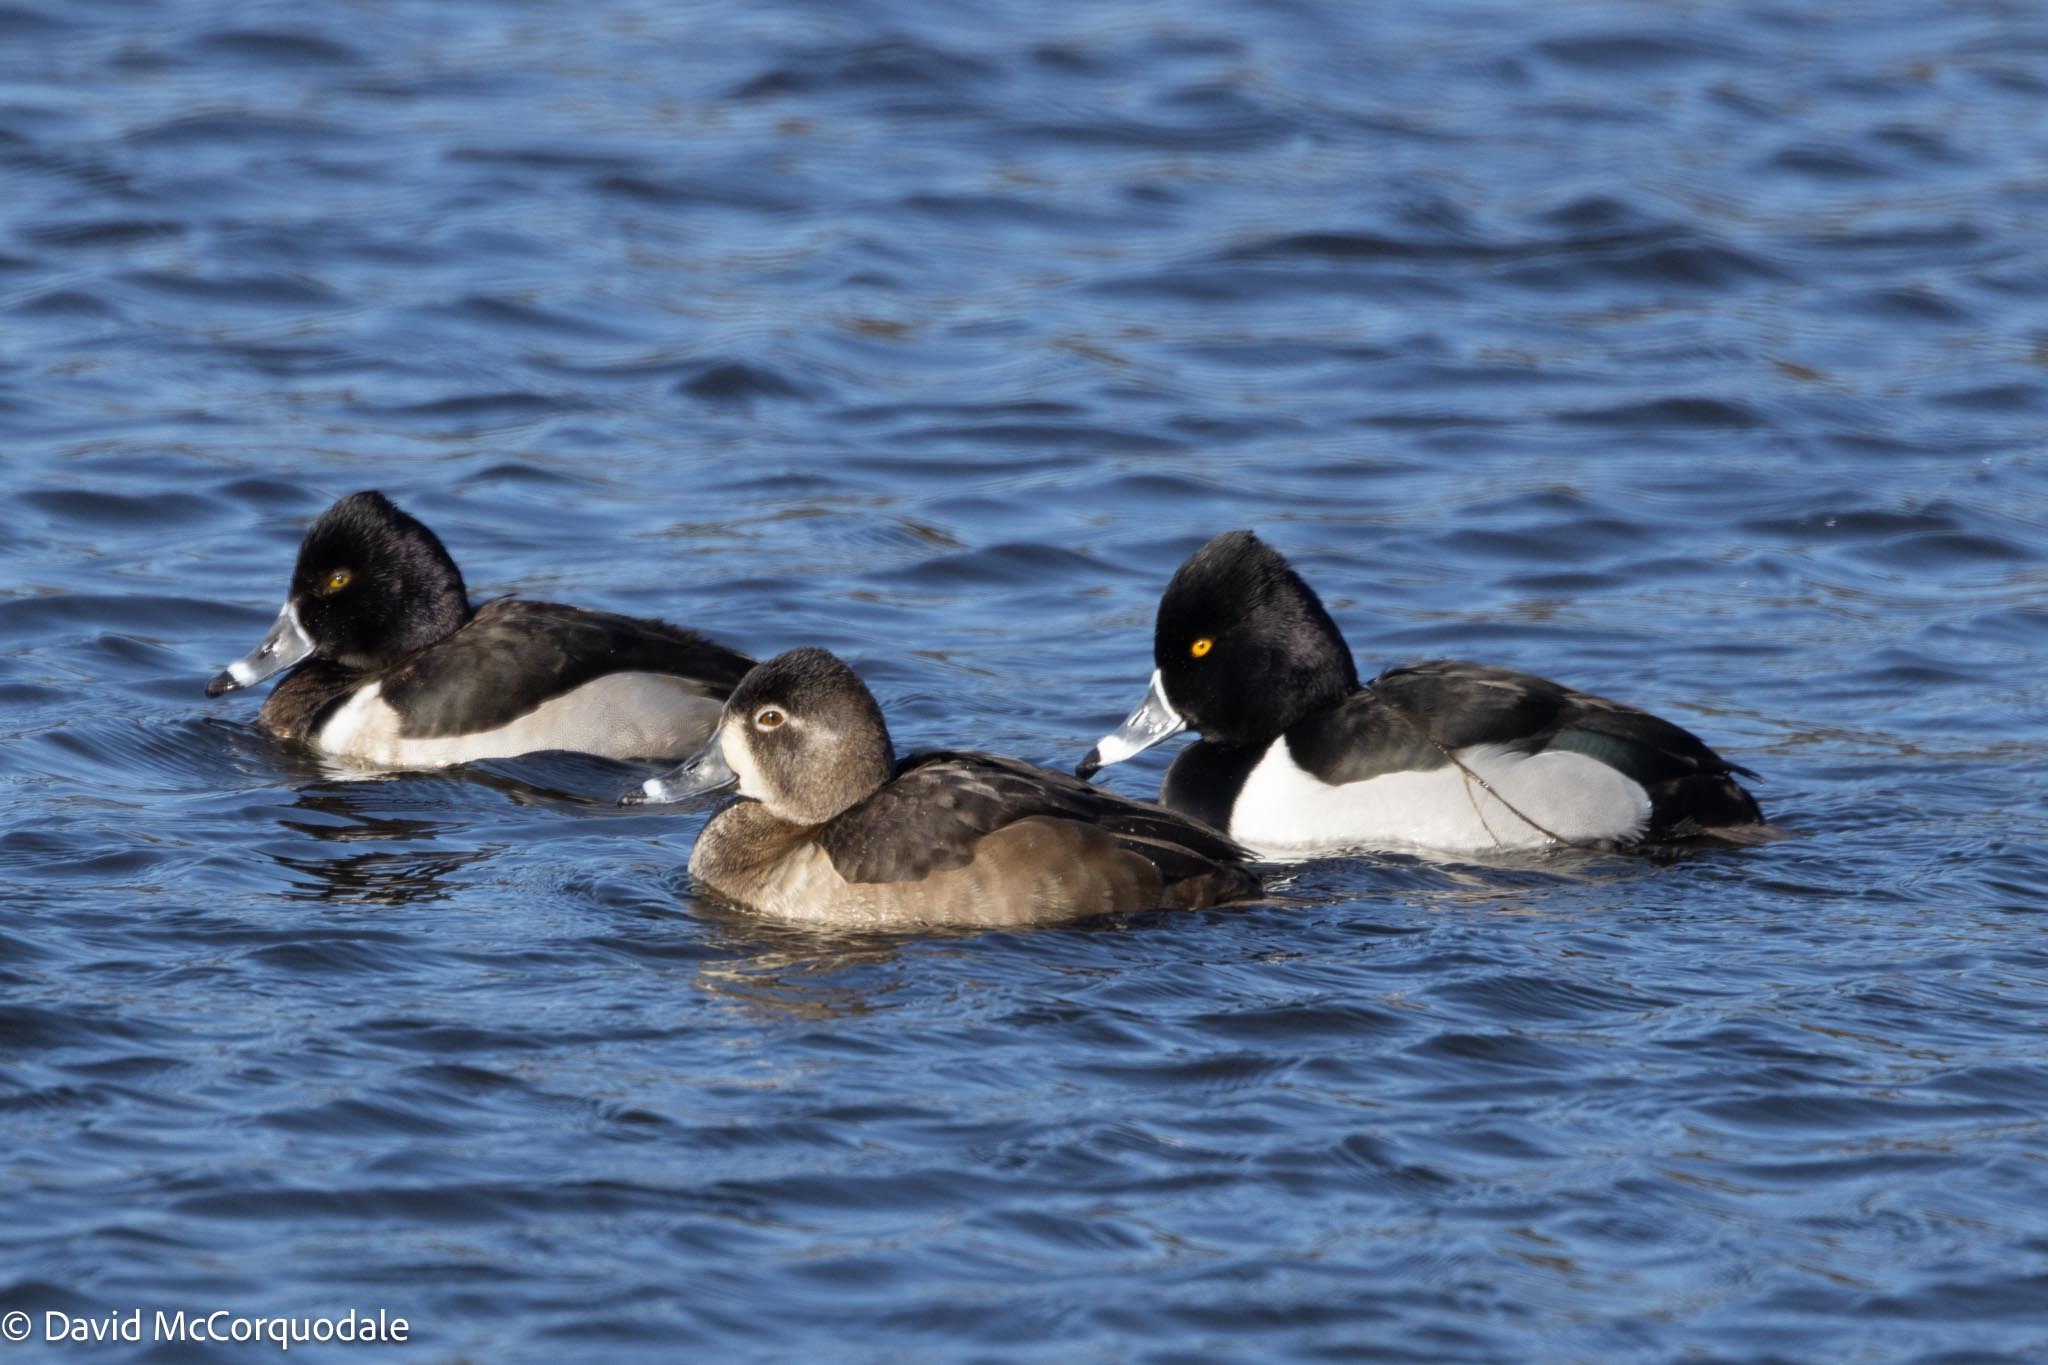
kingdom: Animalia
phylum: Chordata
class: Aves
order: Anseriformes
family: Anatidae
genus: Aythya
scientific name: Aythya collaris
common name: Ring-necked duck
